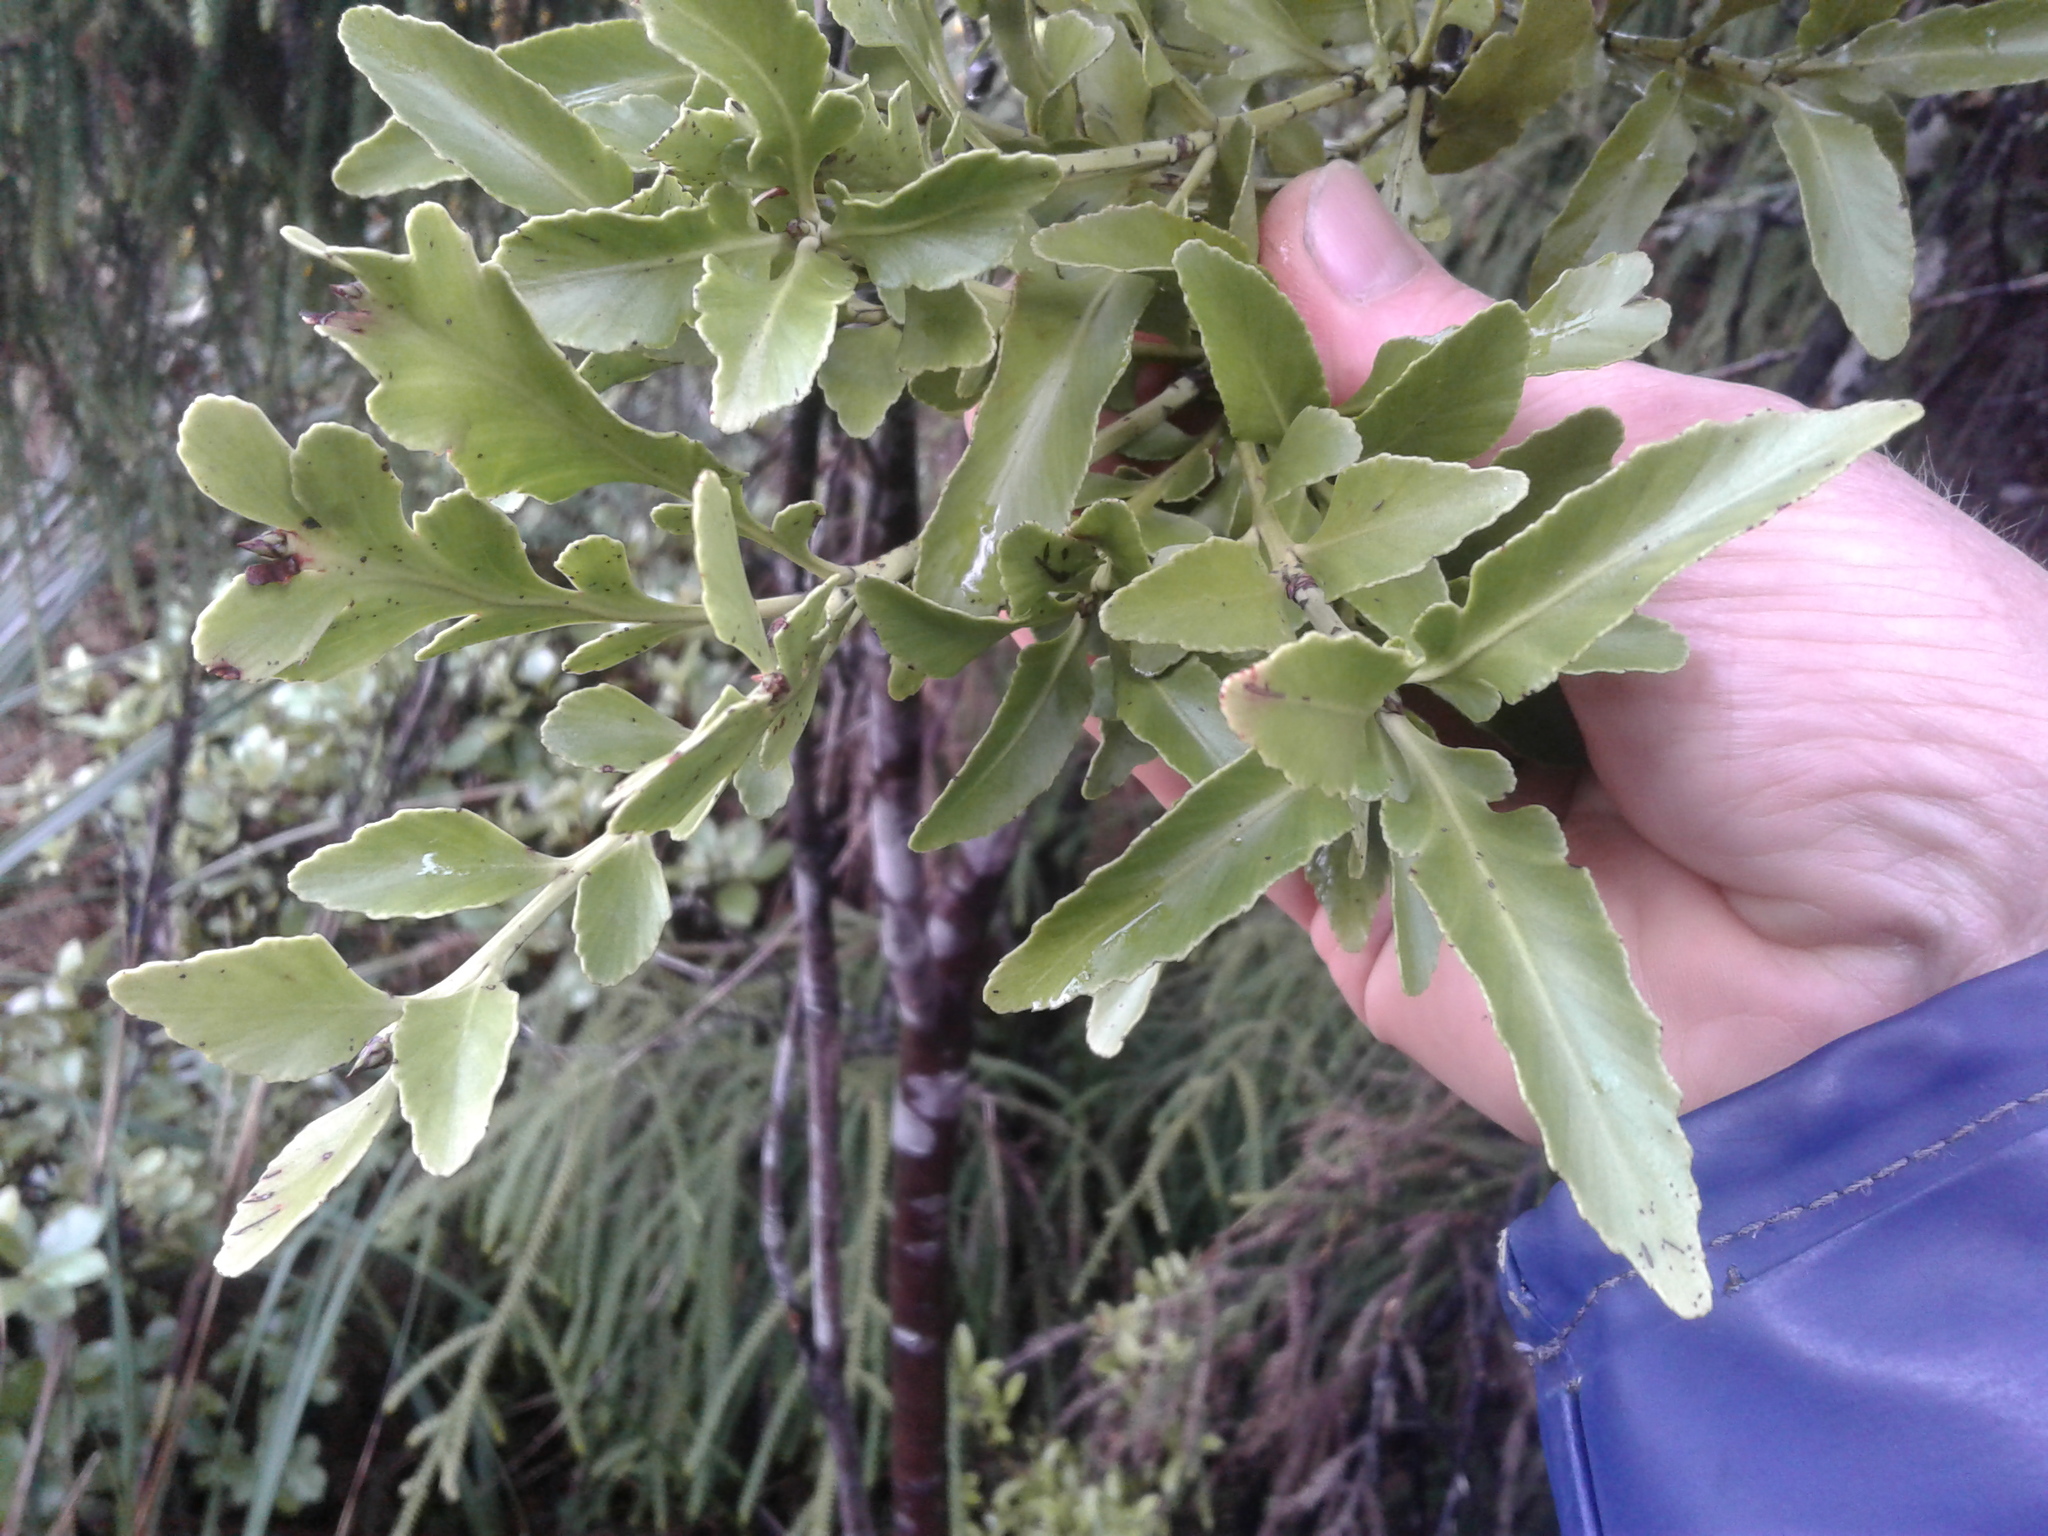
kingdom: Plantae
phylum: Tracheophyta
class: Pinopsida
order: Pinales
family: Phyllocladaceae
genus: Phyllocladus
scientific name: Phyllocladus trichomanoides
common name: Celery pine
